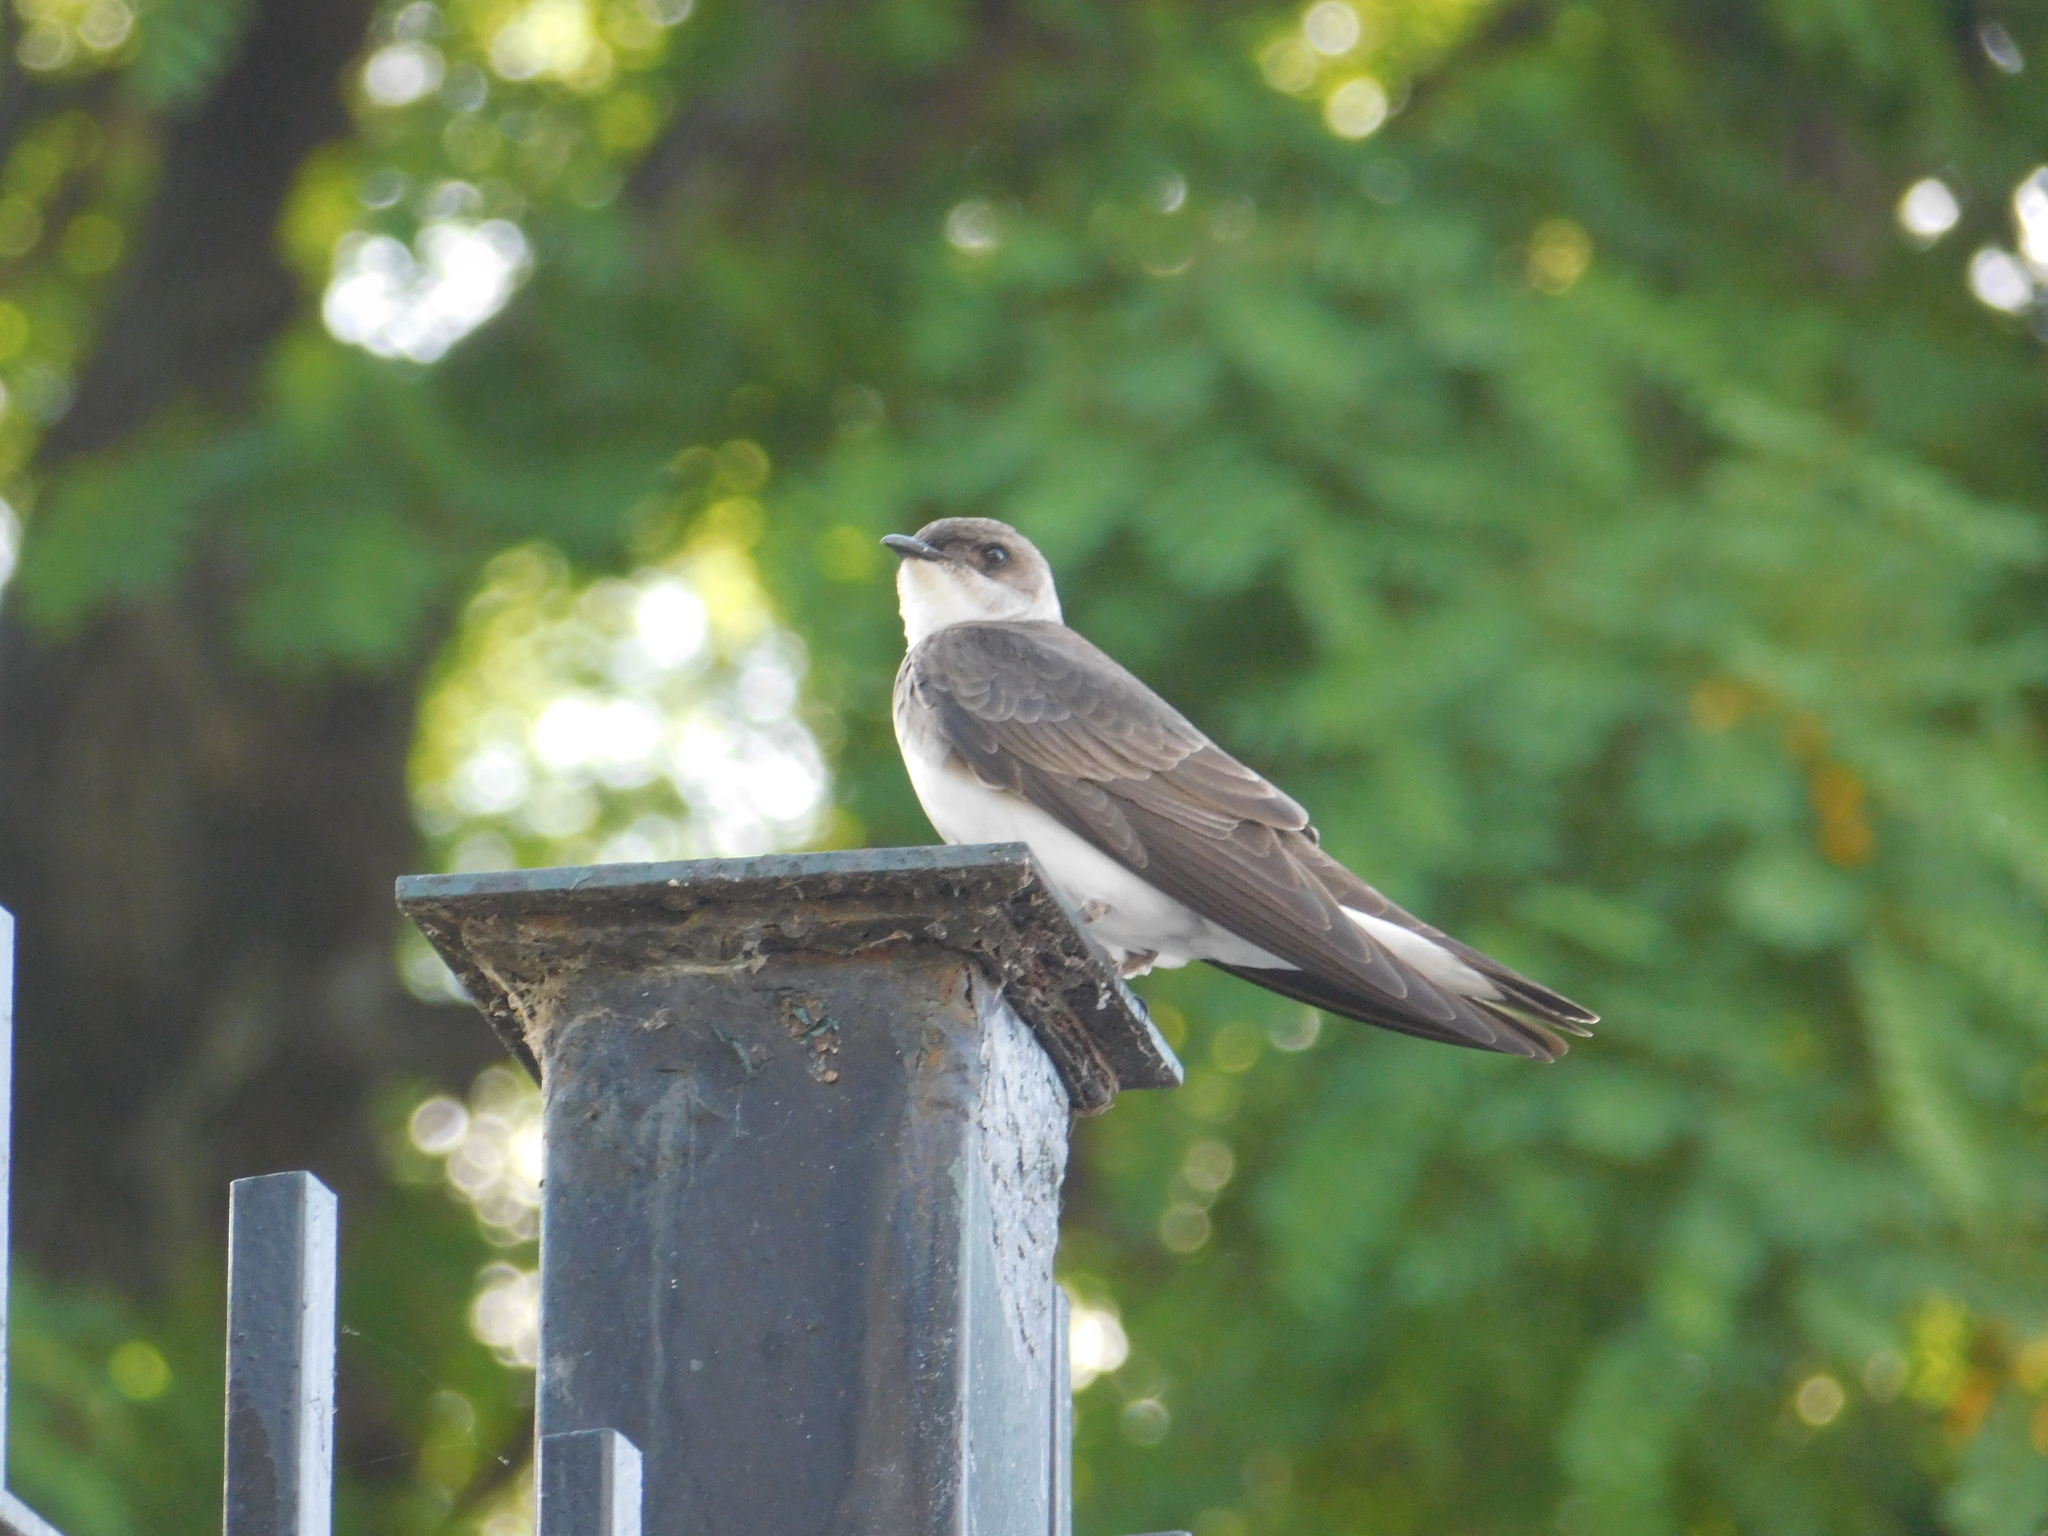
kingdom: Animalia
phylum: Chordata
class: Aves
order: Passeriformes
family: Hirundinidae
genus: Progne
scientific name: Progne tapera
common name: Brown-chested martin
